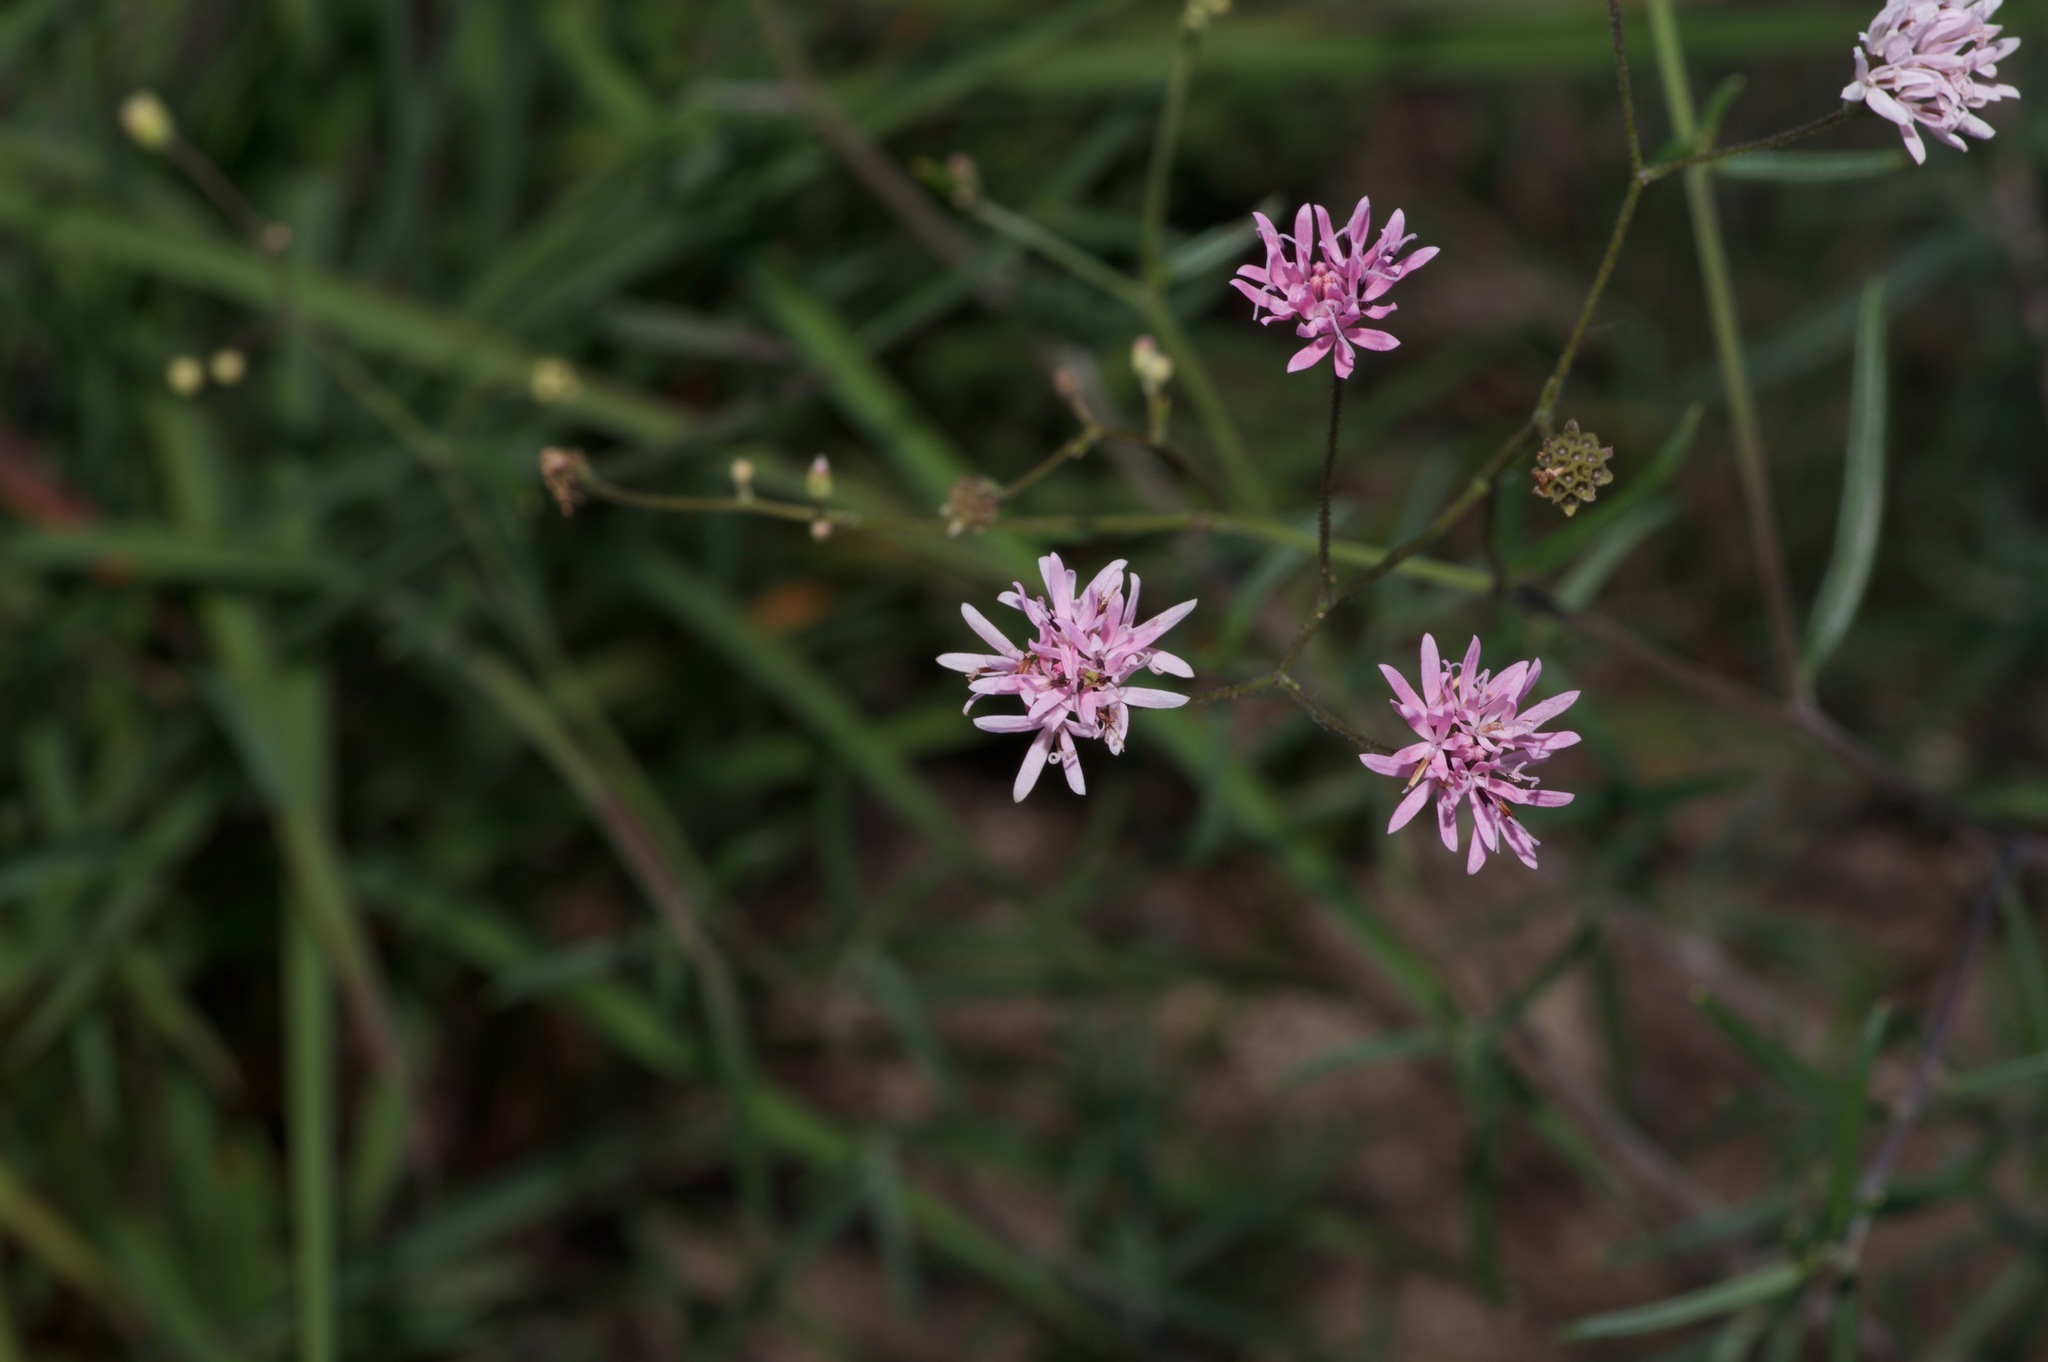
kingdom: Plantae
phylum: Tracheophyta
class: Magnoliopsida
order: Asterales
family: Asteraceae
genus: Palafoxia
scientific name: Palafoxia callosa
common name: Small palafox
